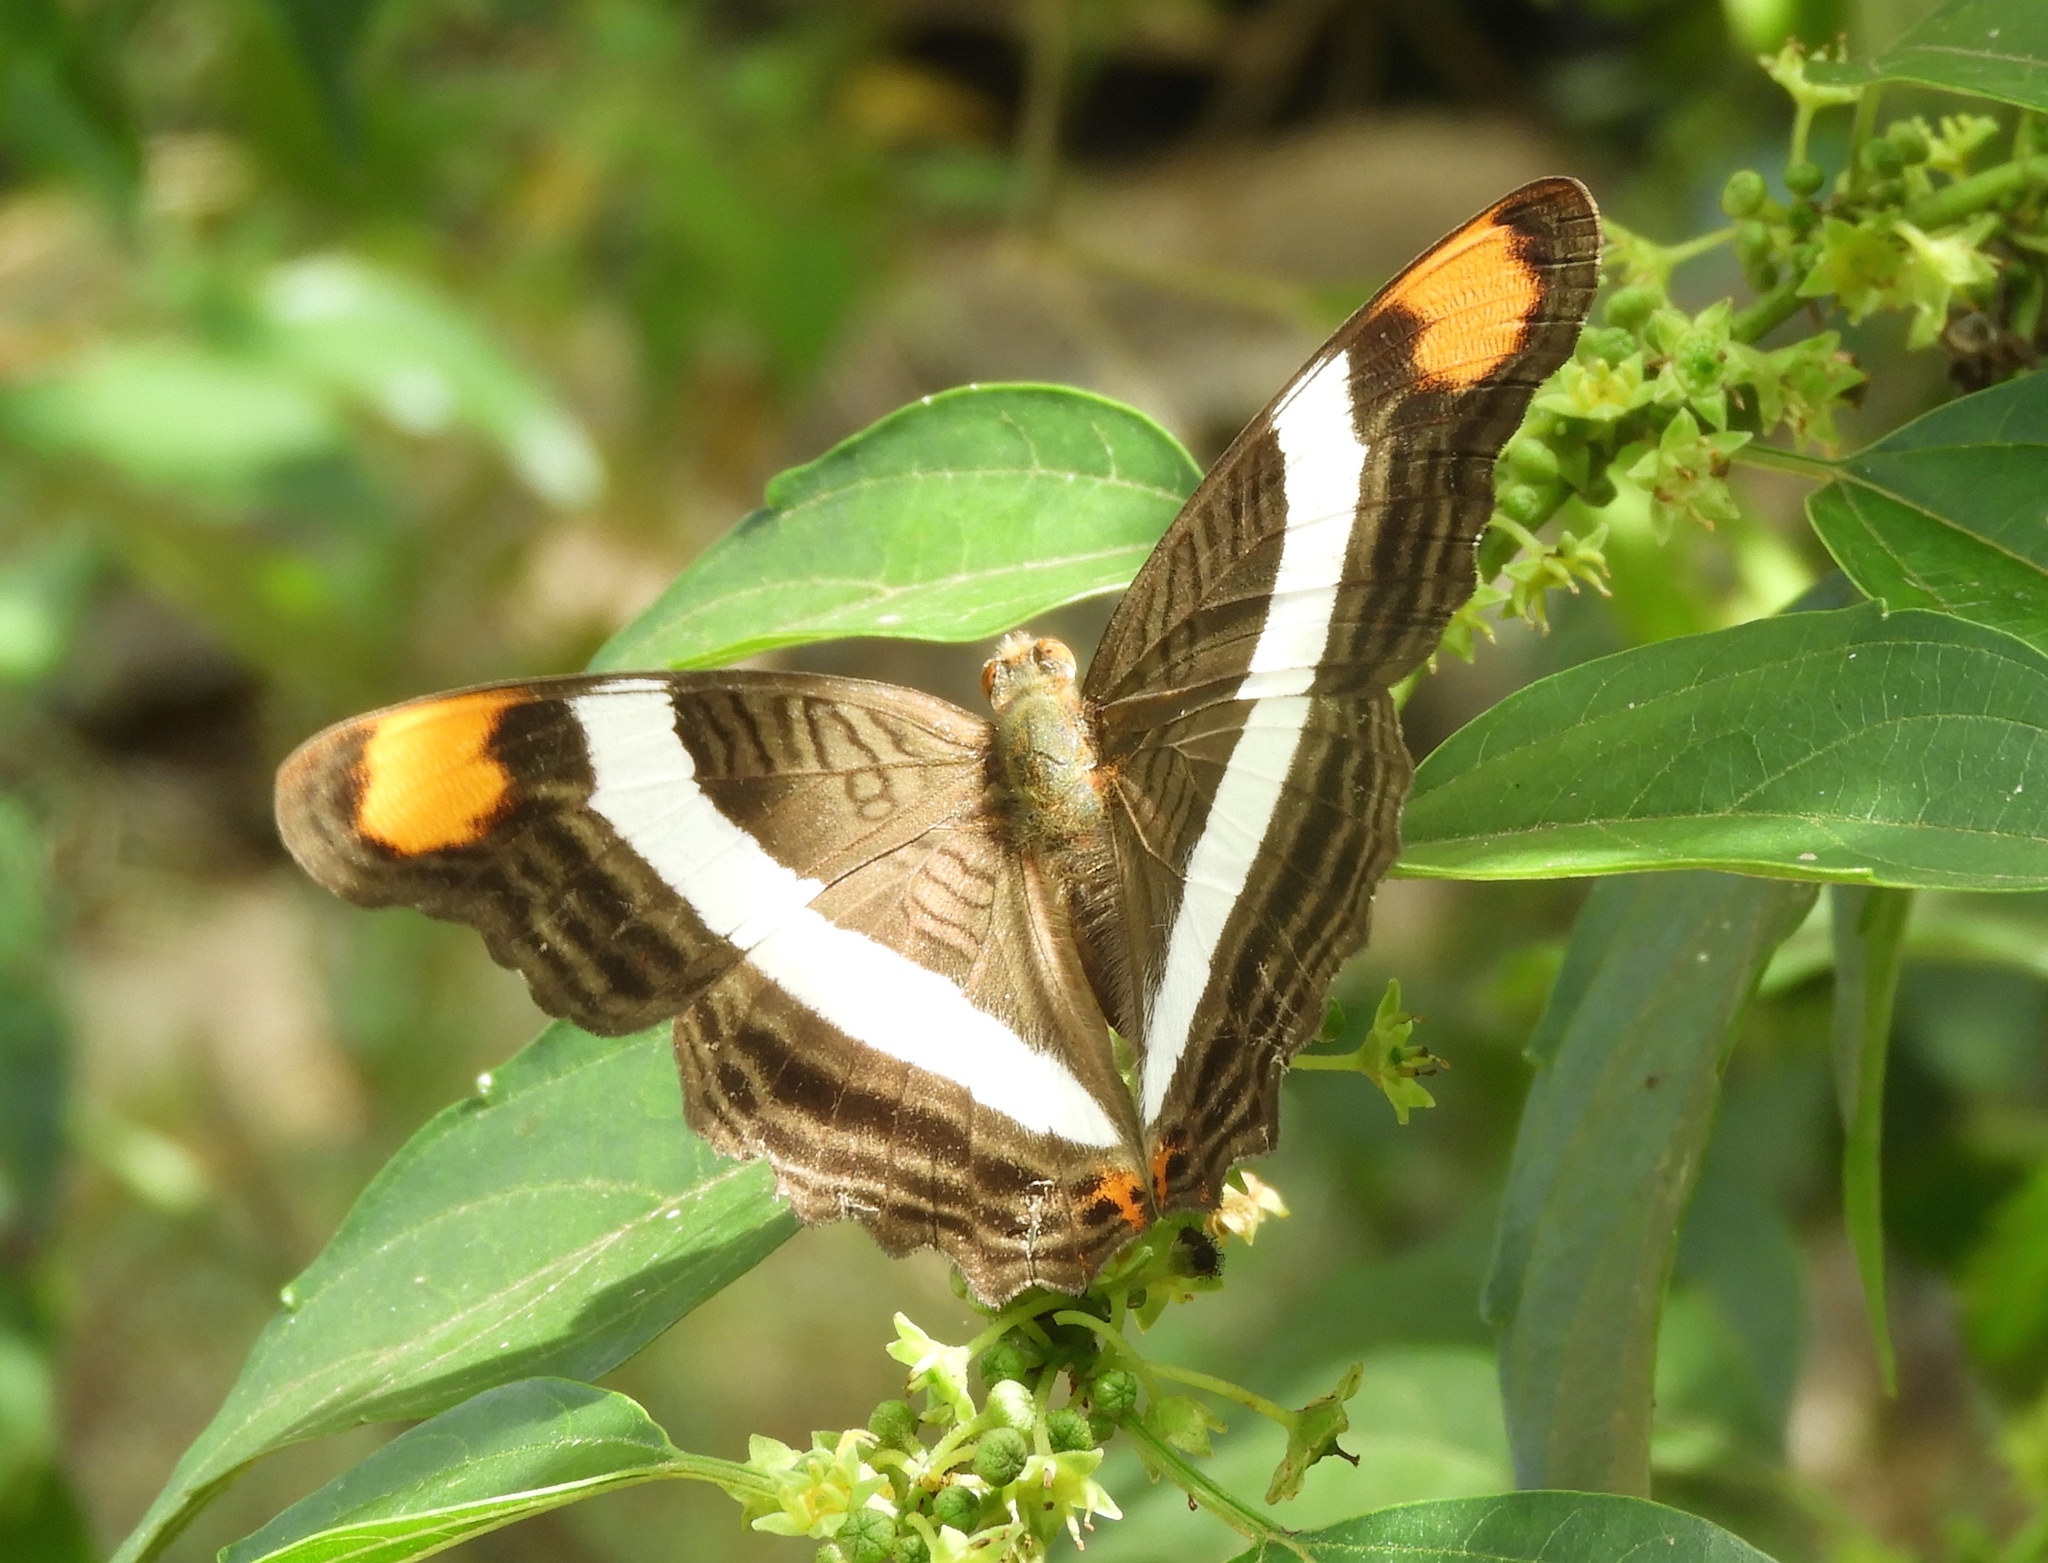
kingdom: Animalia
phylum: Arthropoda
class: Insecta
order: Lepidoptera
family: Nymphalidae
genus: Limenitis
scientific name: Limenitis fessonia
